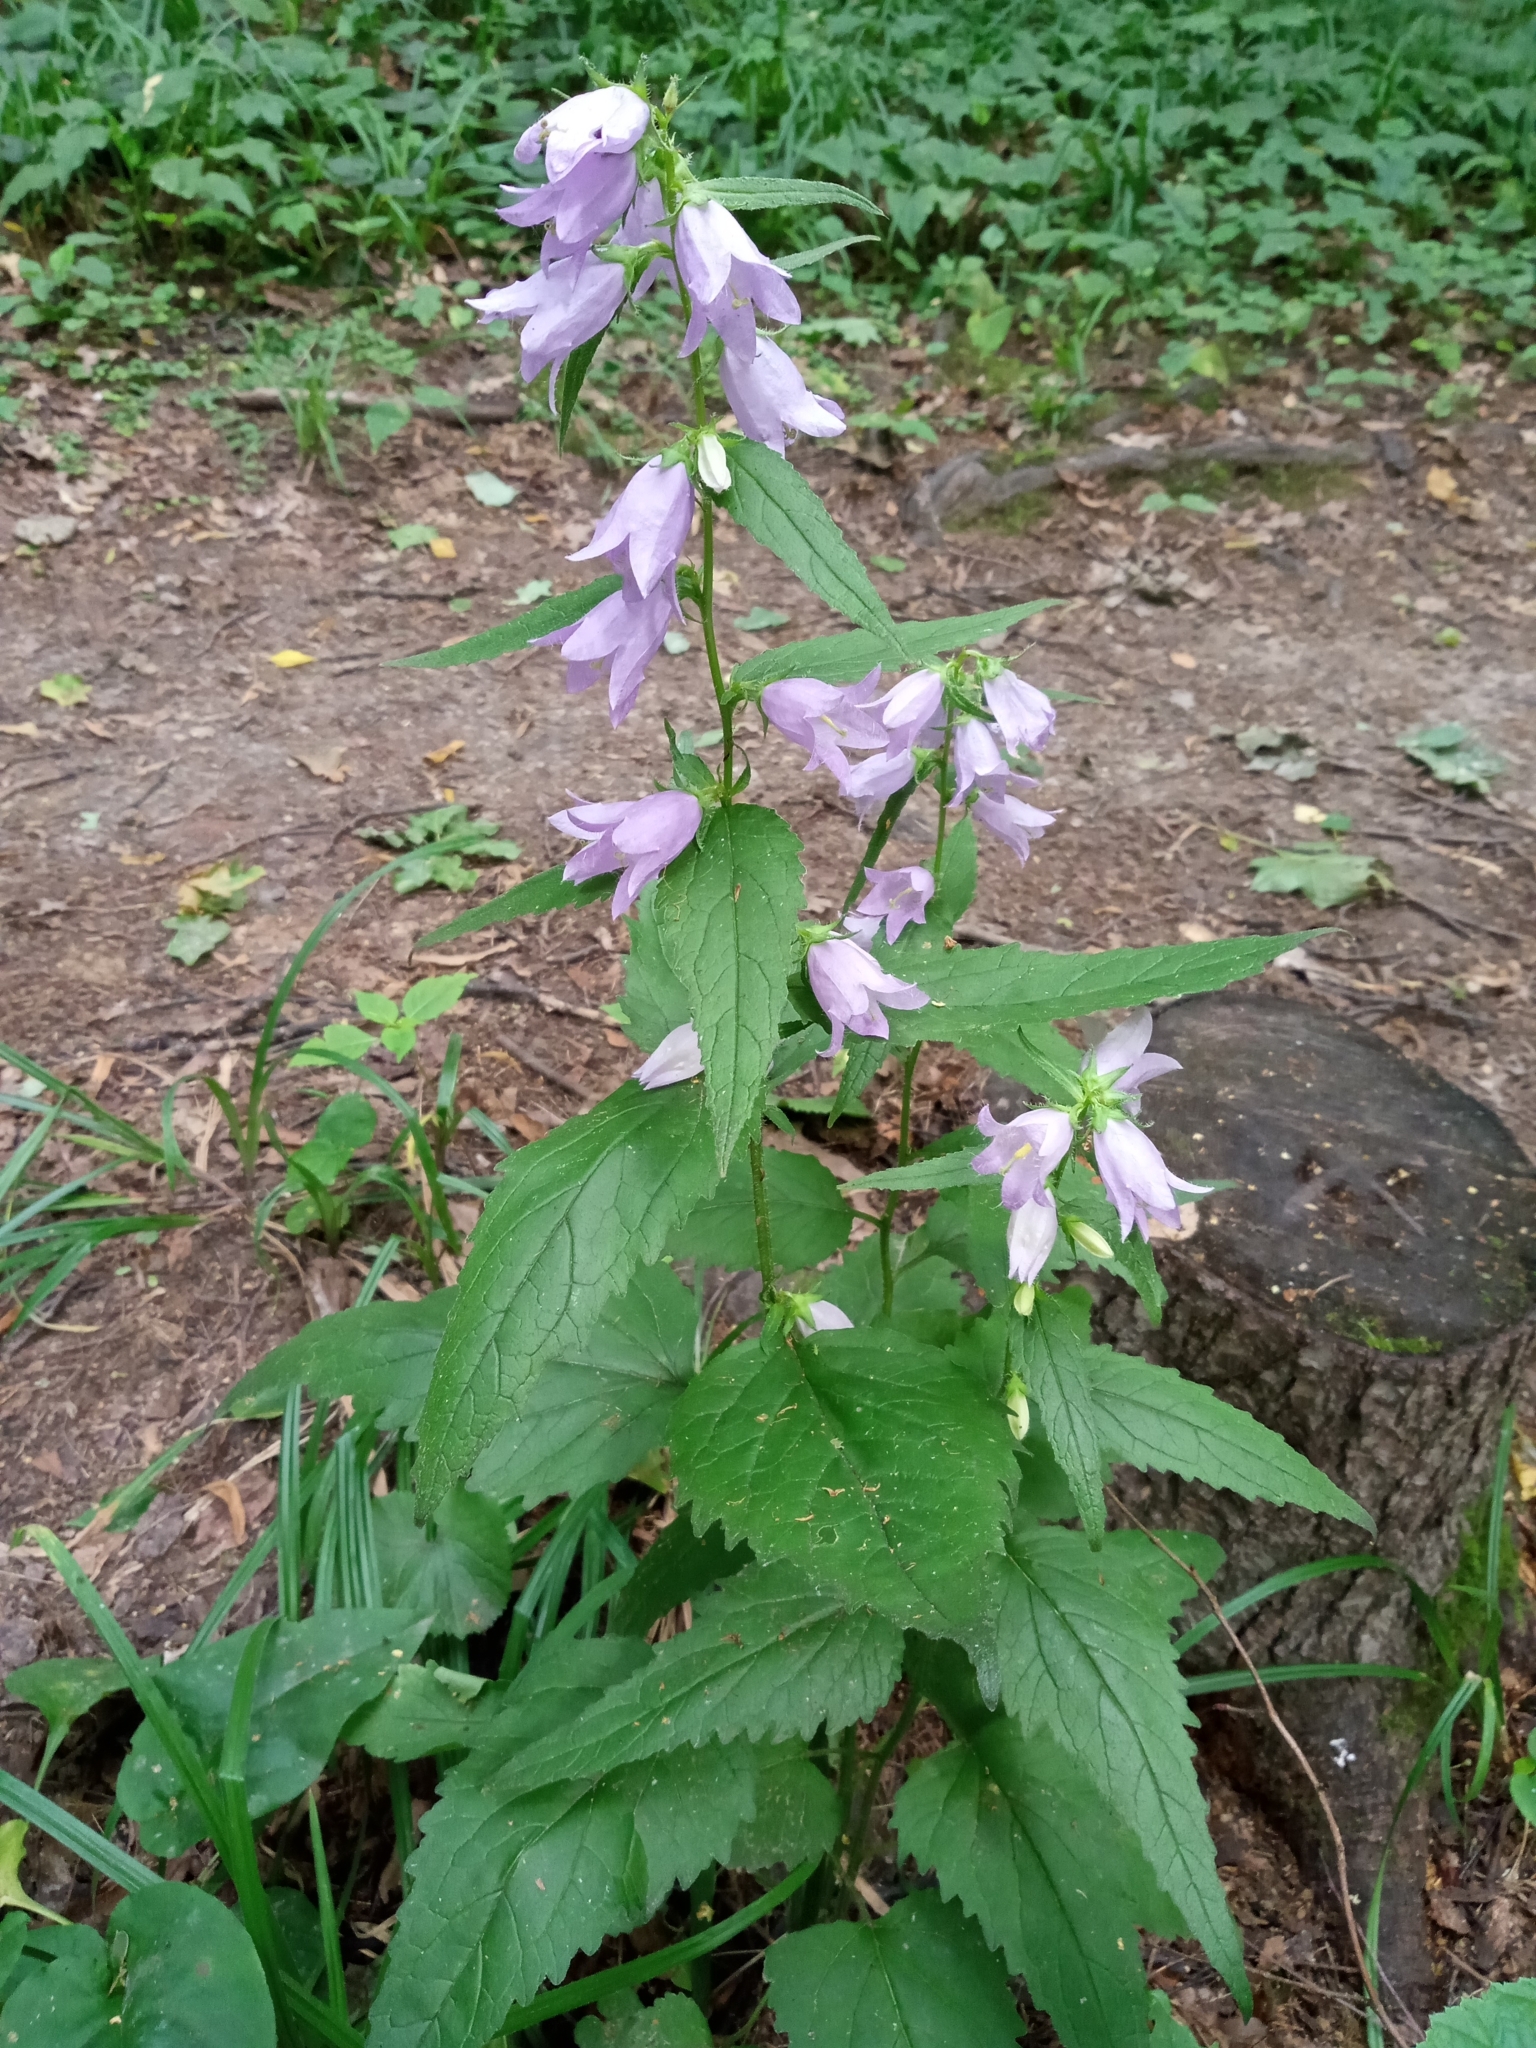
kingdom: Plantae
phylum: Tracheophyta
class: Magnoliopsida
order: Asterales
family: Campanulaceae
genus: Campanula
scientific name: Campanula trachelium
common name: Nettle-leaved bellflower
